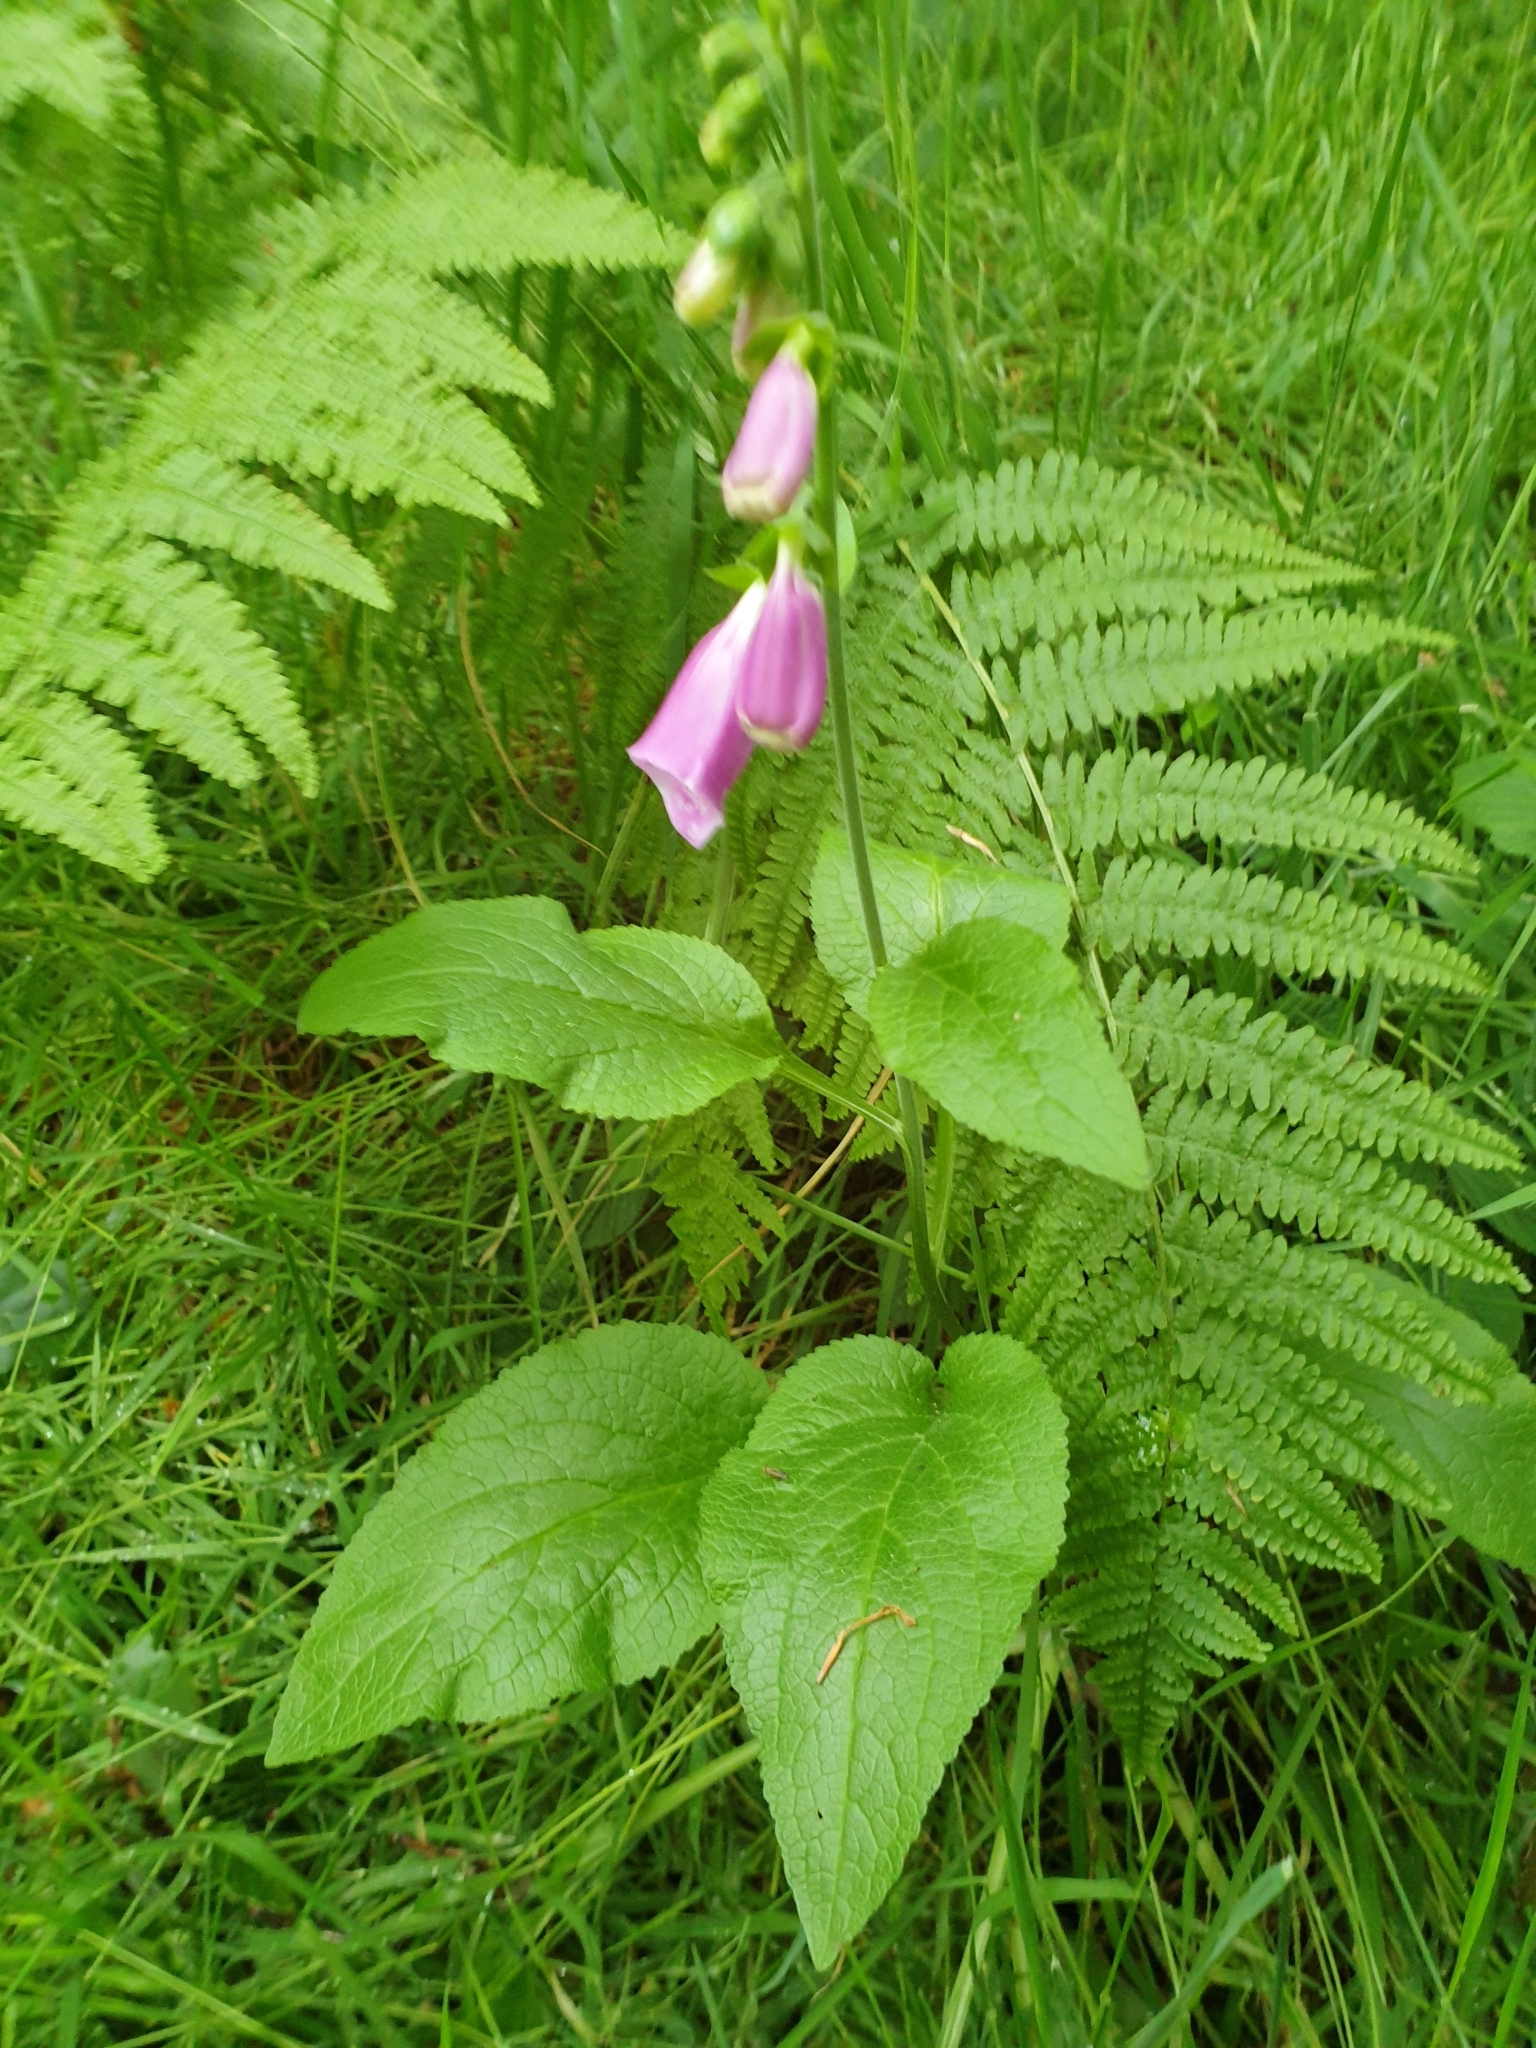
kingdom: Plantae
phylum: Tracheophyta
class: Magnoliopsida
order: Lamiales
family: Plantaginaceae
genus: Digitalis
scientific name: Digitalis purpurea
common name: Foxglove
